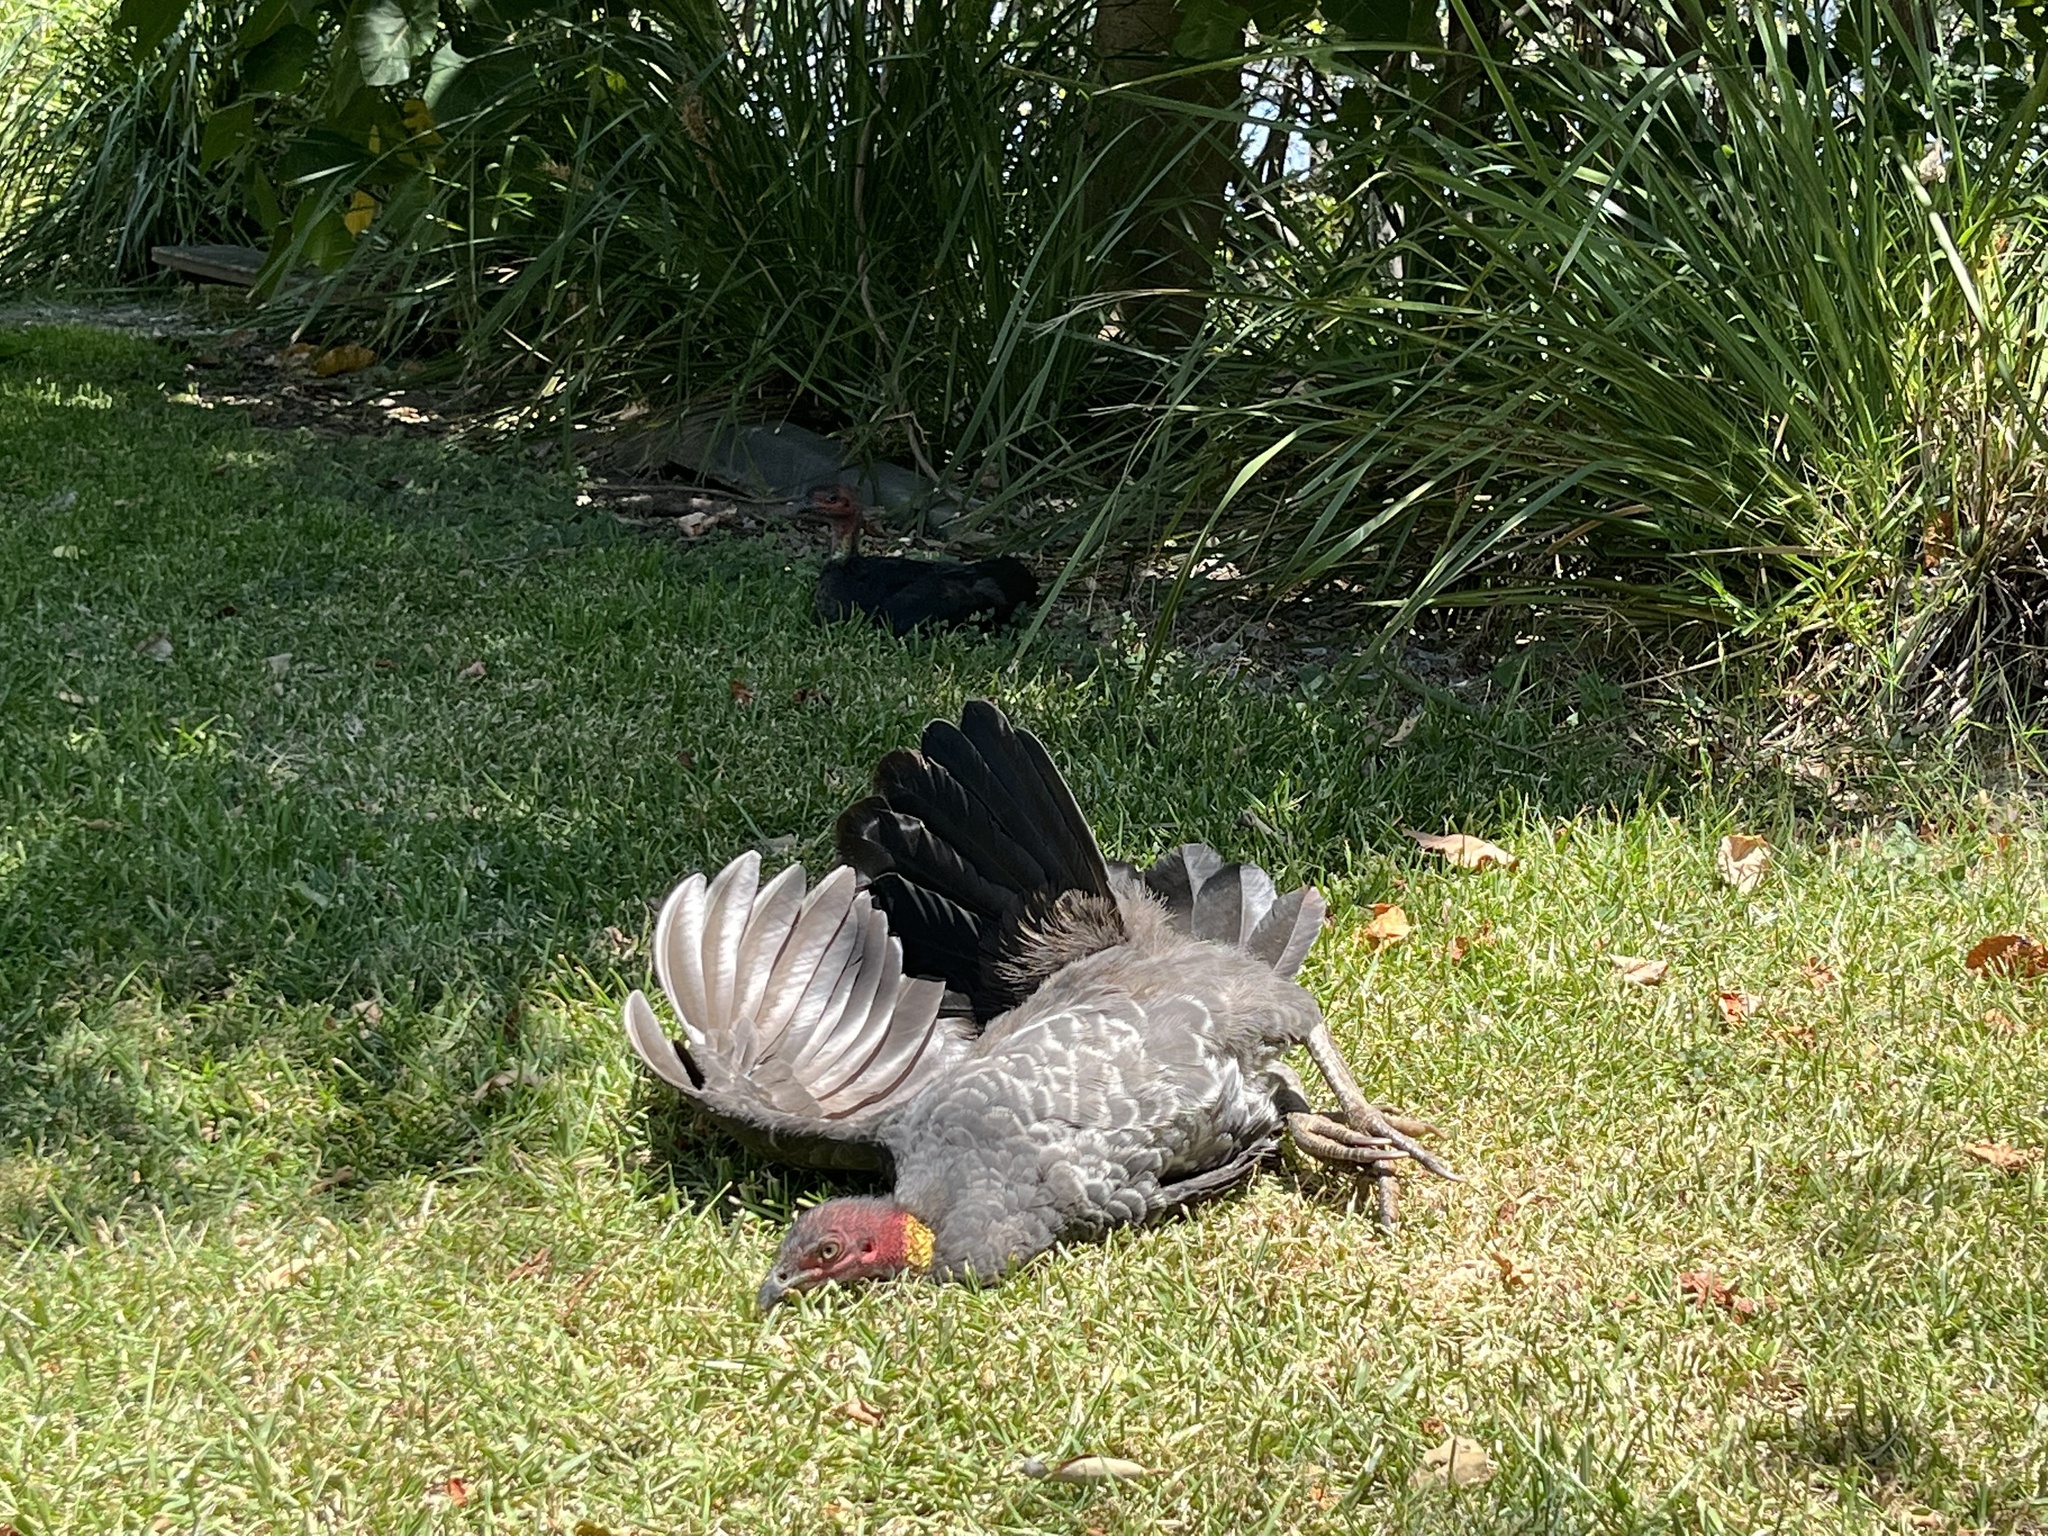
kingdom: Animalia
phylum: Chordata
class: Aves
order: Galliformes
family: Megapodiidae
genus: Alectura
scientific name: Alectura lathami
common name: Australian brushturkey
